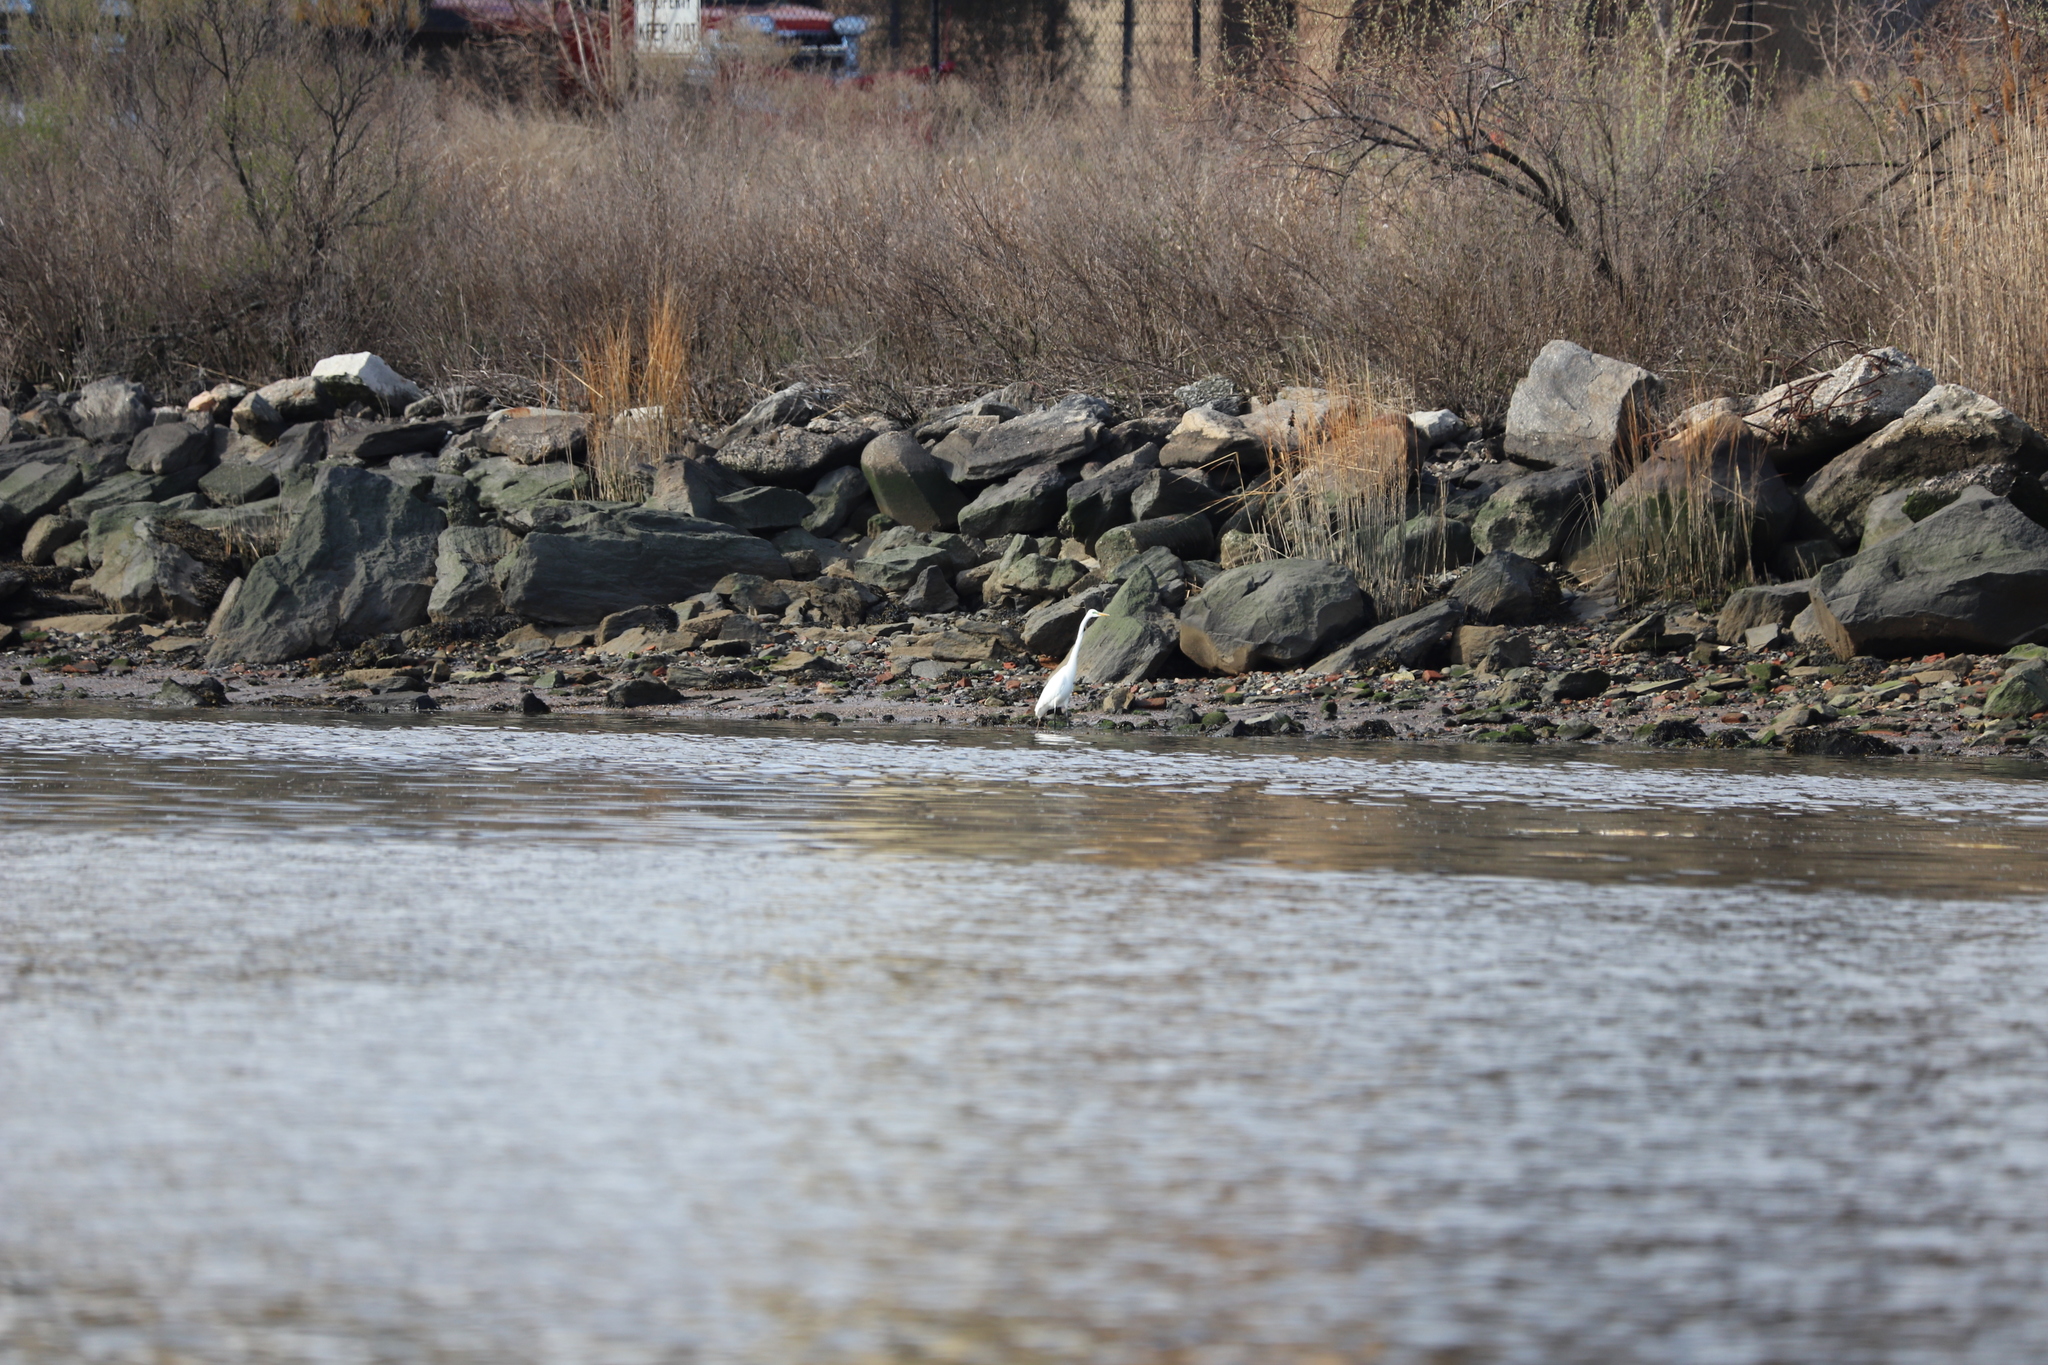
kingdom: Animalia
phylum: Chordata
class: Aves
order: Pelecaniformes
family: Ardeidae
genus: Ardea
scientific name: Ardea alba
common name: Great egret
